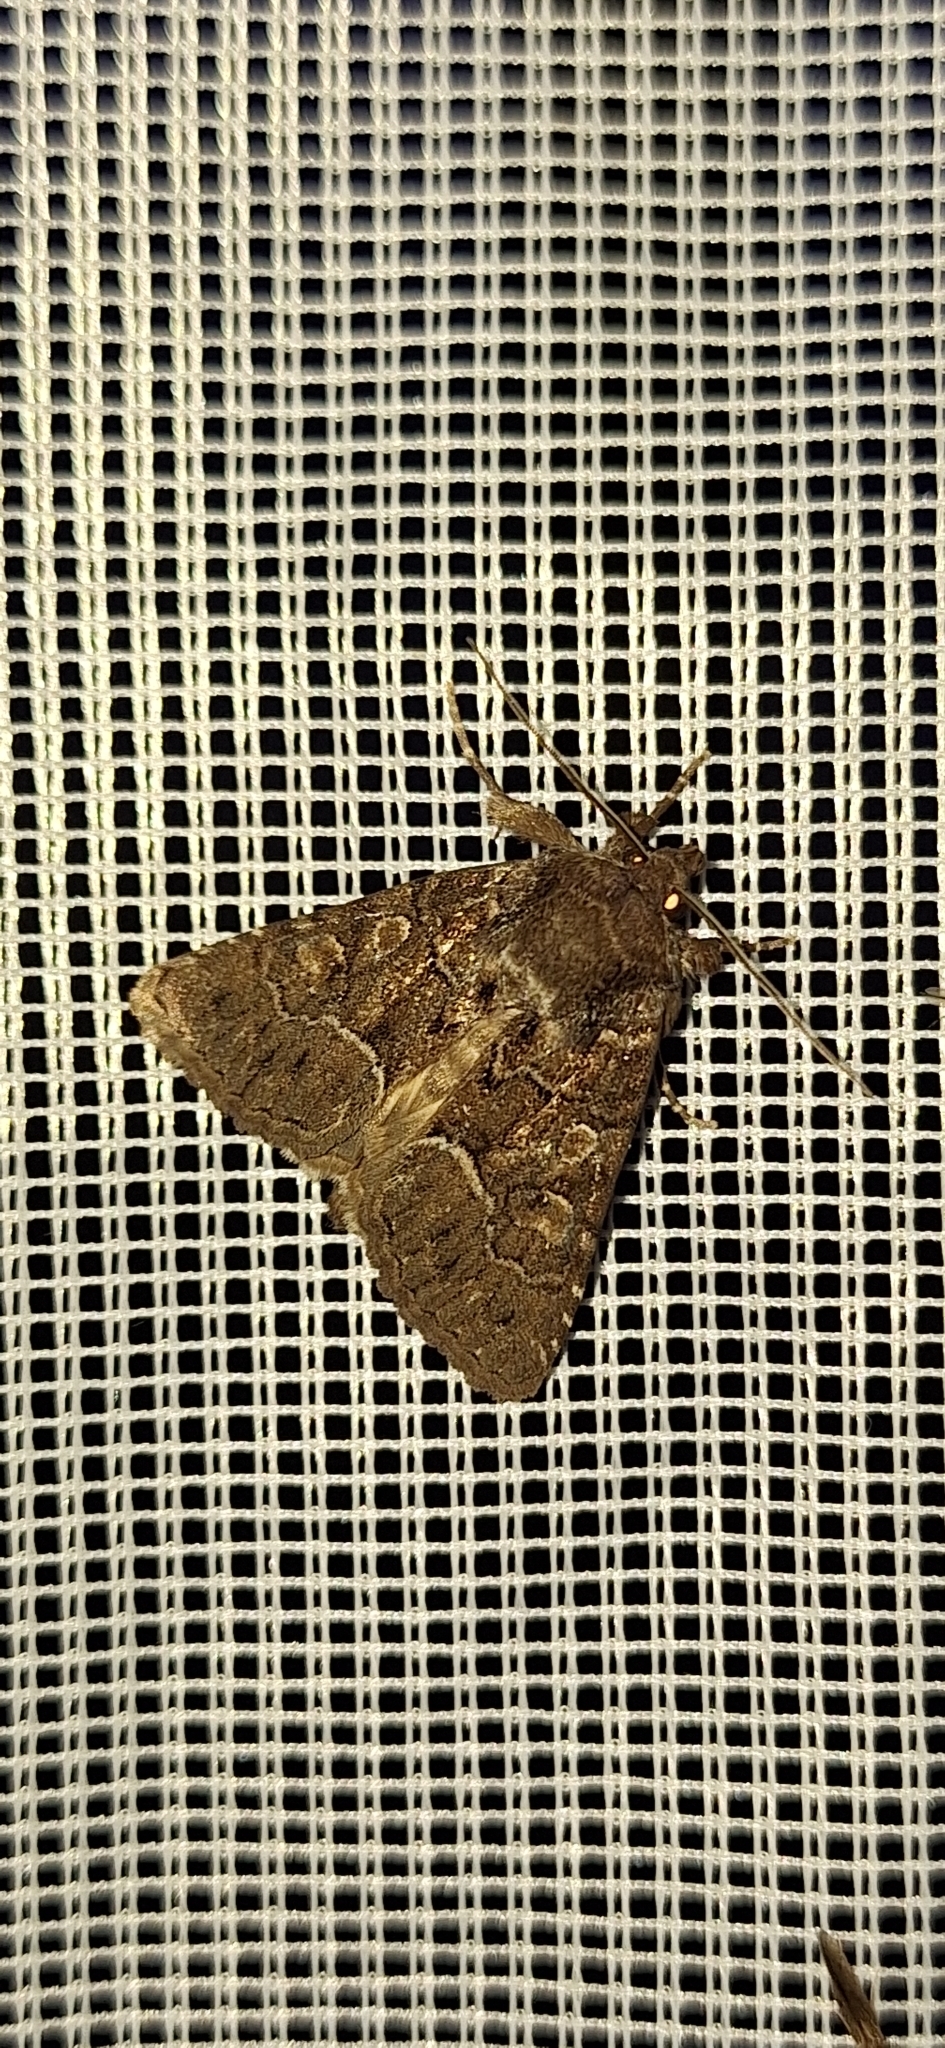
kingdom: Animalia
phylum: Arthropoda
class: Insecta
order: Lepidoptera
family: Noctuidae
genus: Thalpophila
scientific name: Thalpophila matura
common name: Straw underwing
